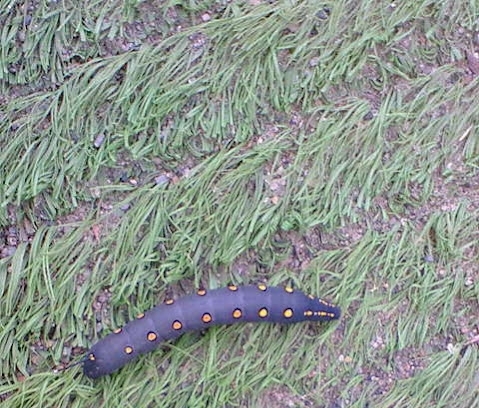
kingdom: Animalia
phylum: Arthropoda
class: Insecta
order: Lepidoptera
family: Sphingidae
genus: Theretra
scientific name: Theretra oldenlandiae
